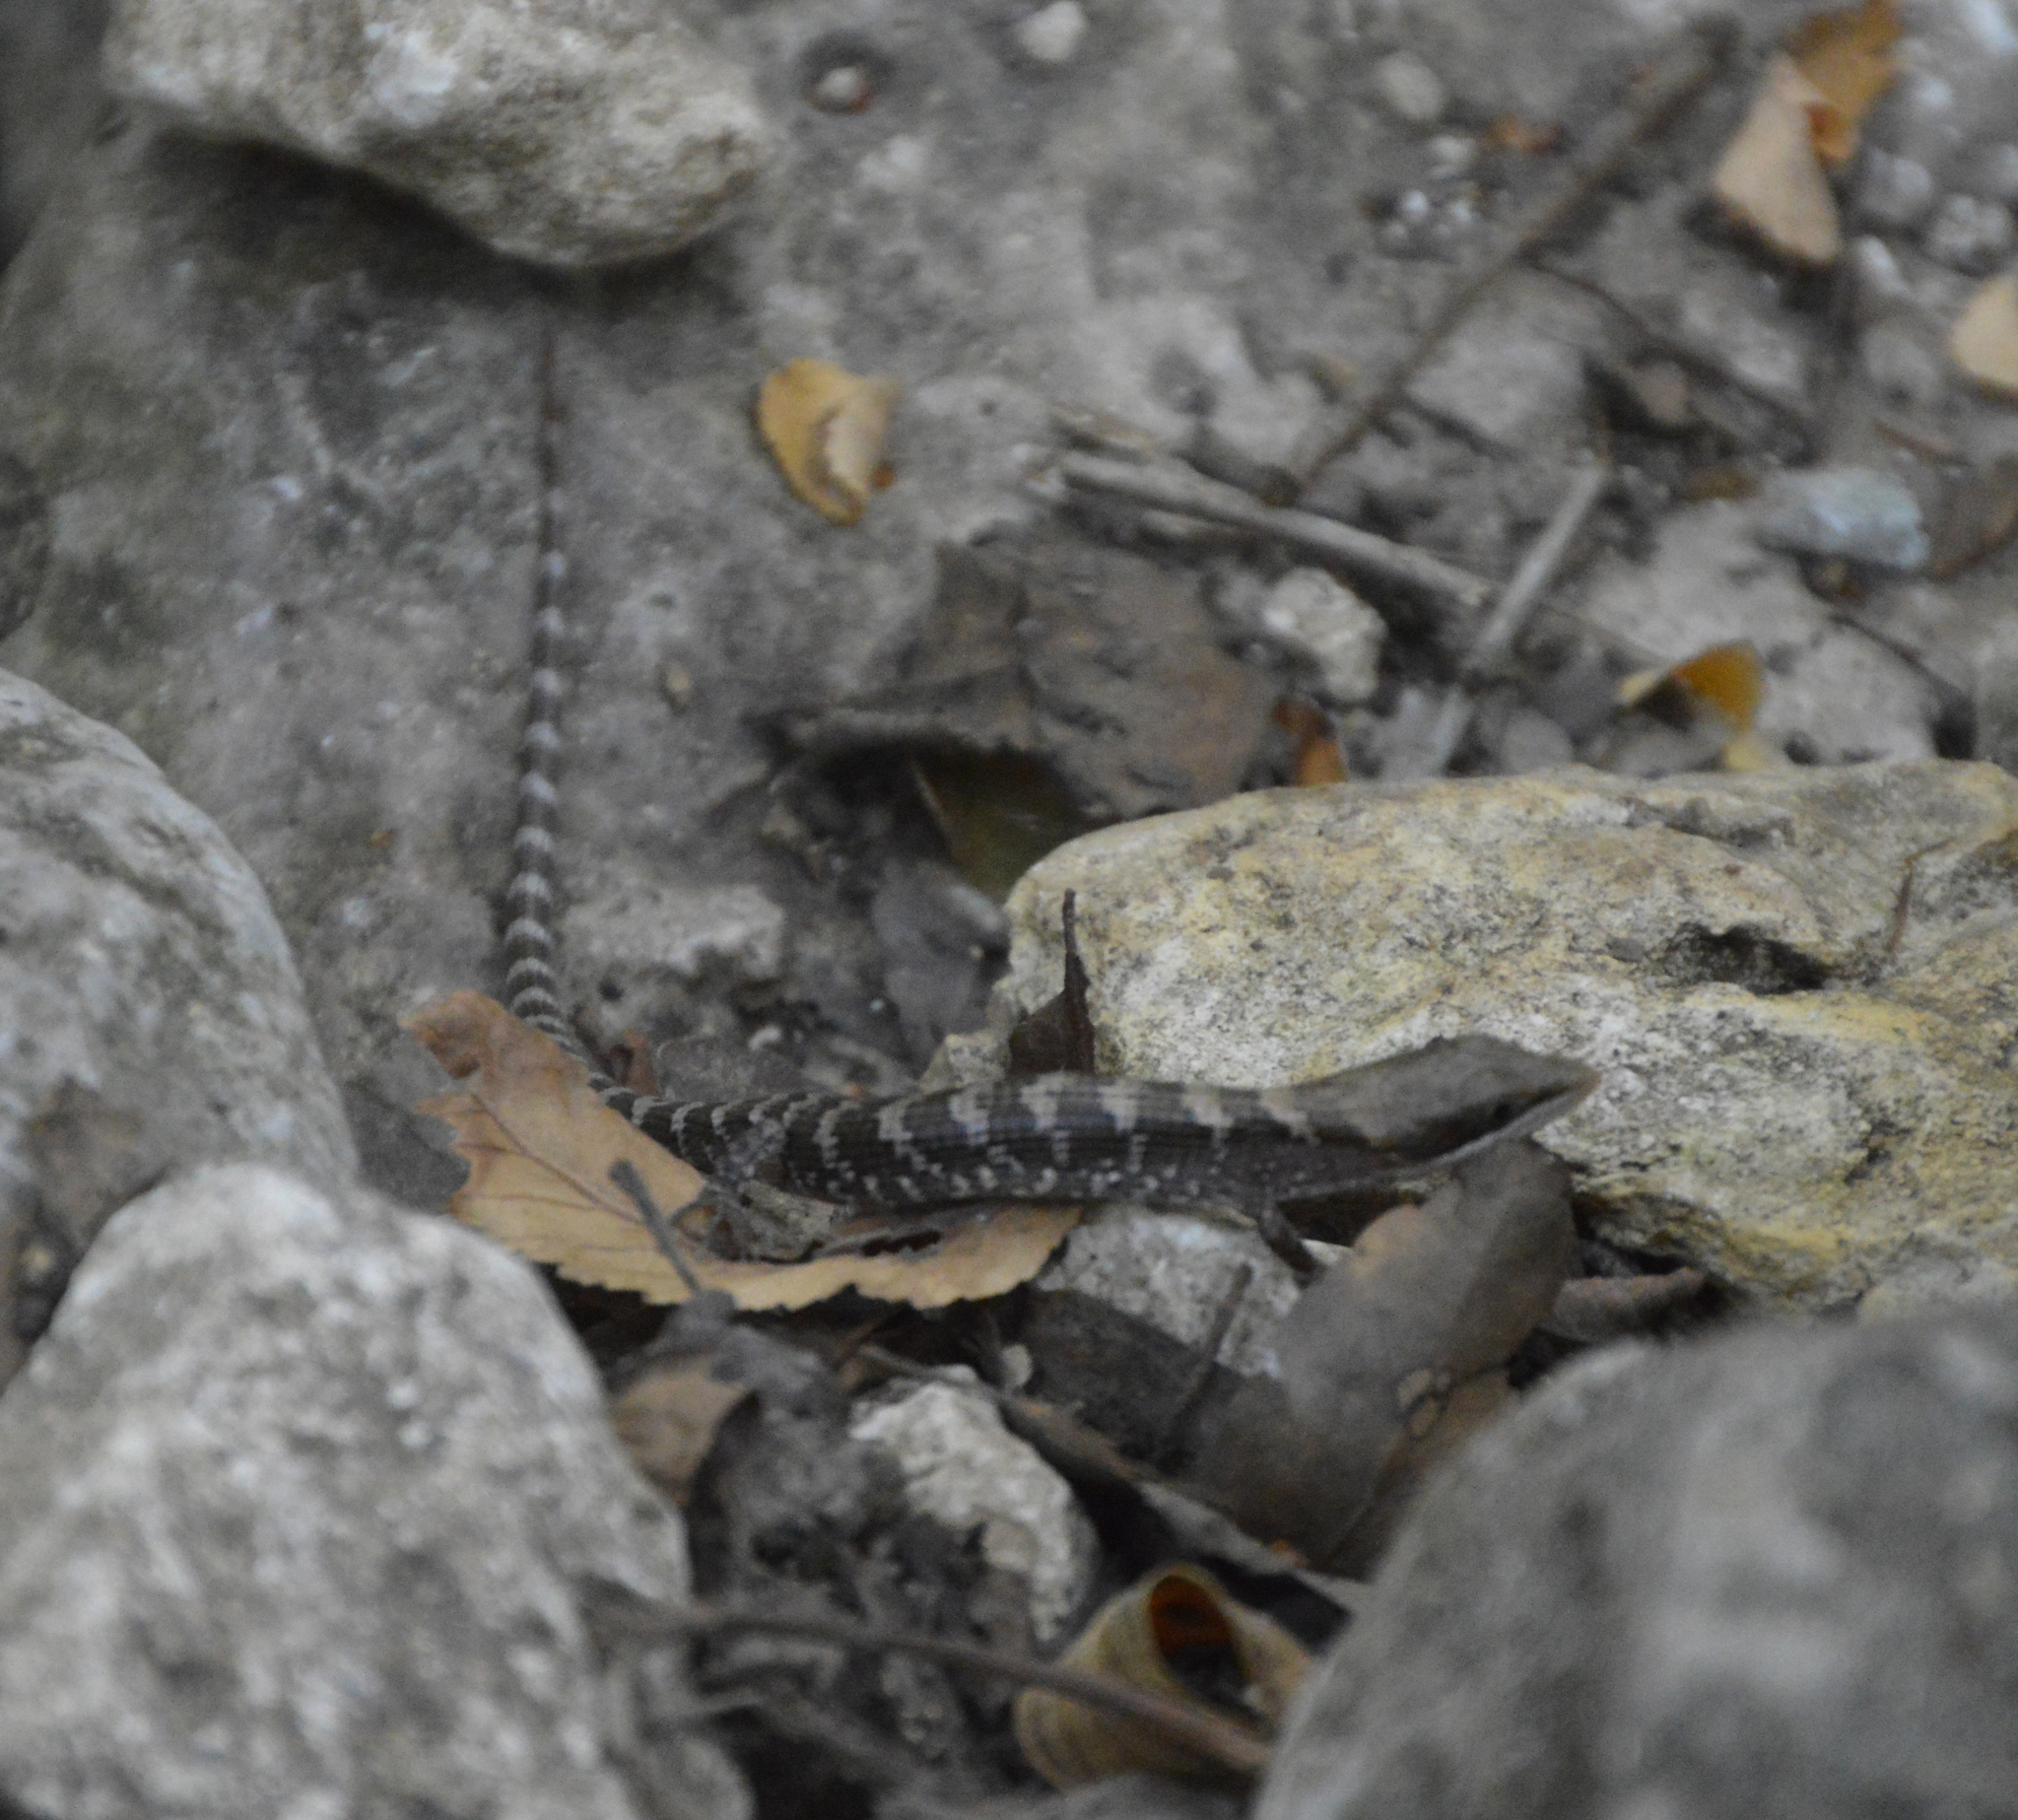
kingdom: Animalia
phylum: Chordata
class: Squamata
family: Anguidae
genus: Gerrhonotus
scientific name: Gerrhonotus infernalis
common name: Texas alligator lizard
